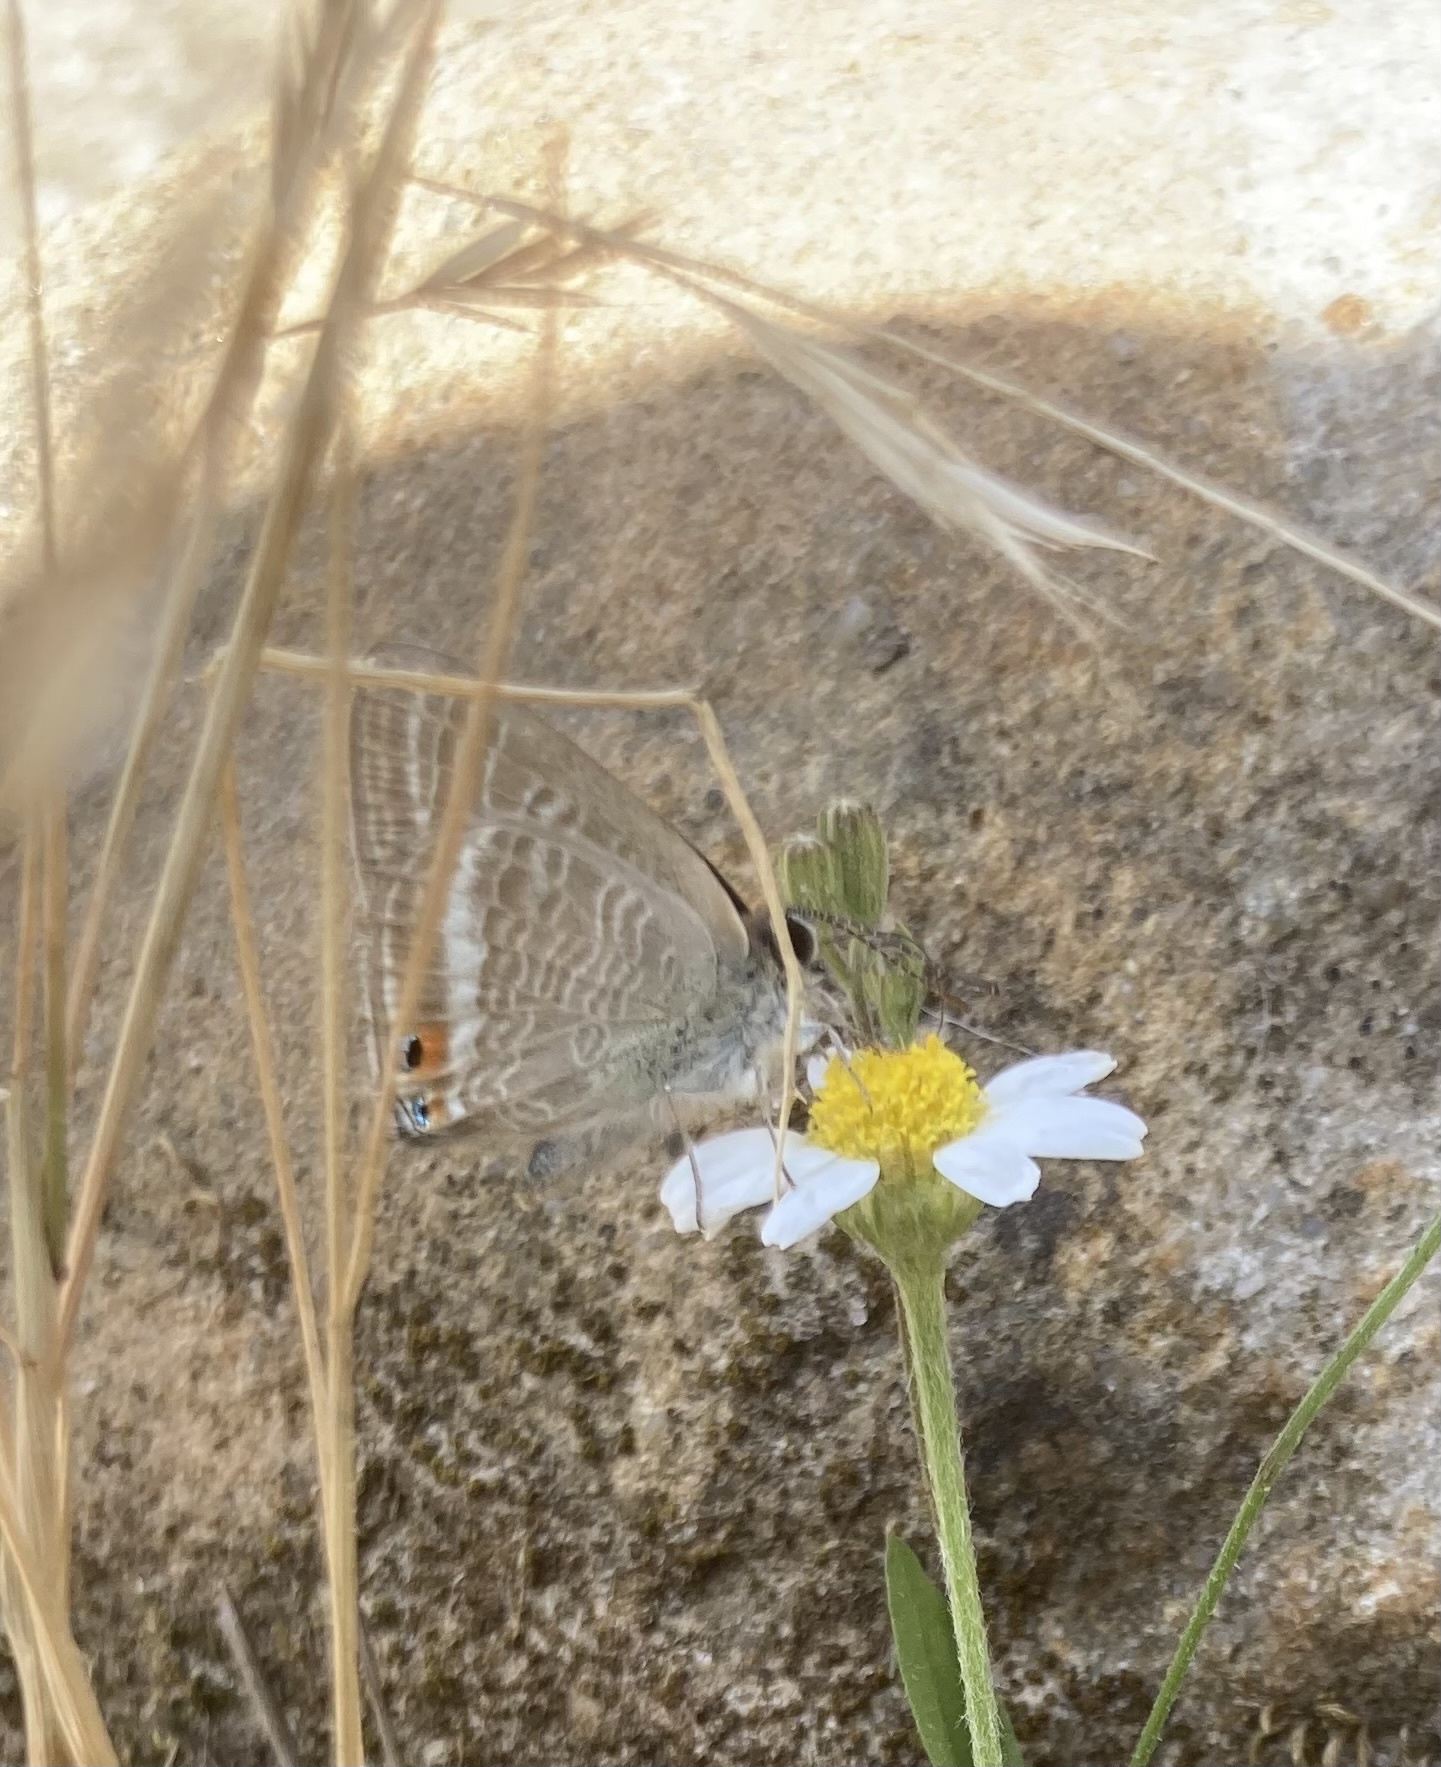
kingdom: Animalia
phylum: Arthropoda
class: Insecta
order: Lepidoptera
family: Lycaenidae
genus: Lampides
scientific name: Lampides boeticus
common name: Long-tailed blue
